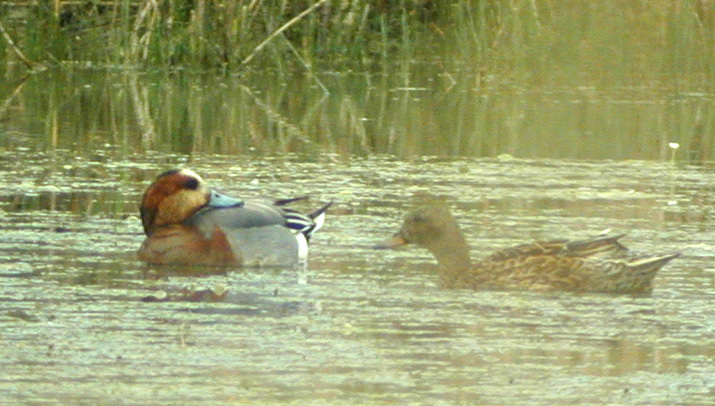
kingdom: Animalia
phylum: Chordata
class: Aves
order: Anseriformes
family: Anatidae
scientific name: Anatidae
